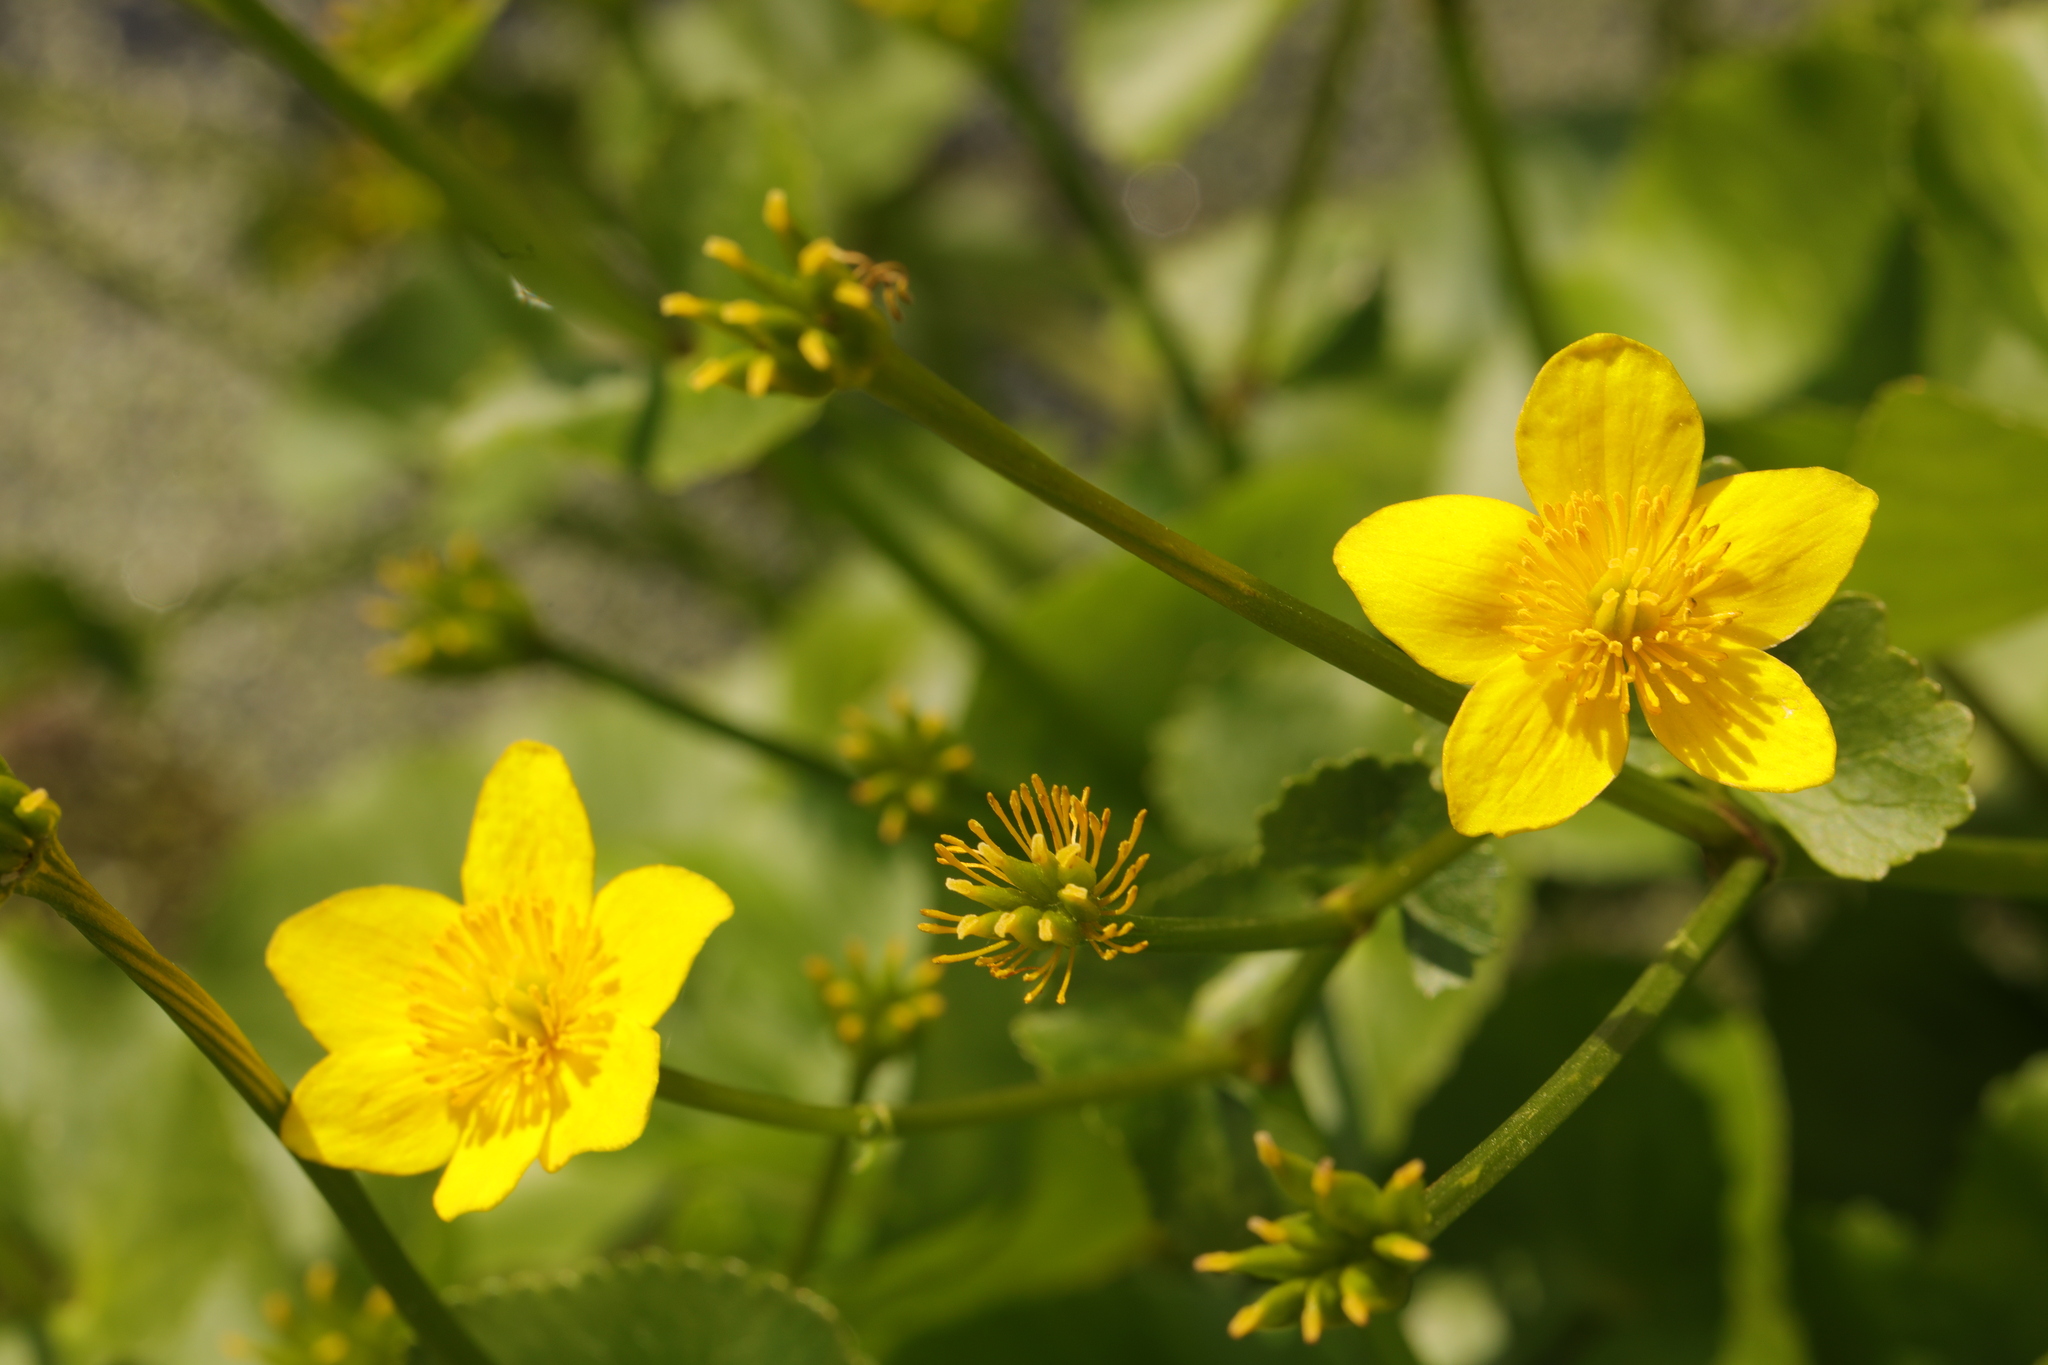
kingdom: Plantae
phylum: Tracheophyta
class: Magnoliopsida
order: Ranunculales
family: Ranunculaceae
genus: Caltha
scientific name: Caltha palustris
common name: Marsh marigold
